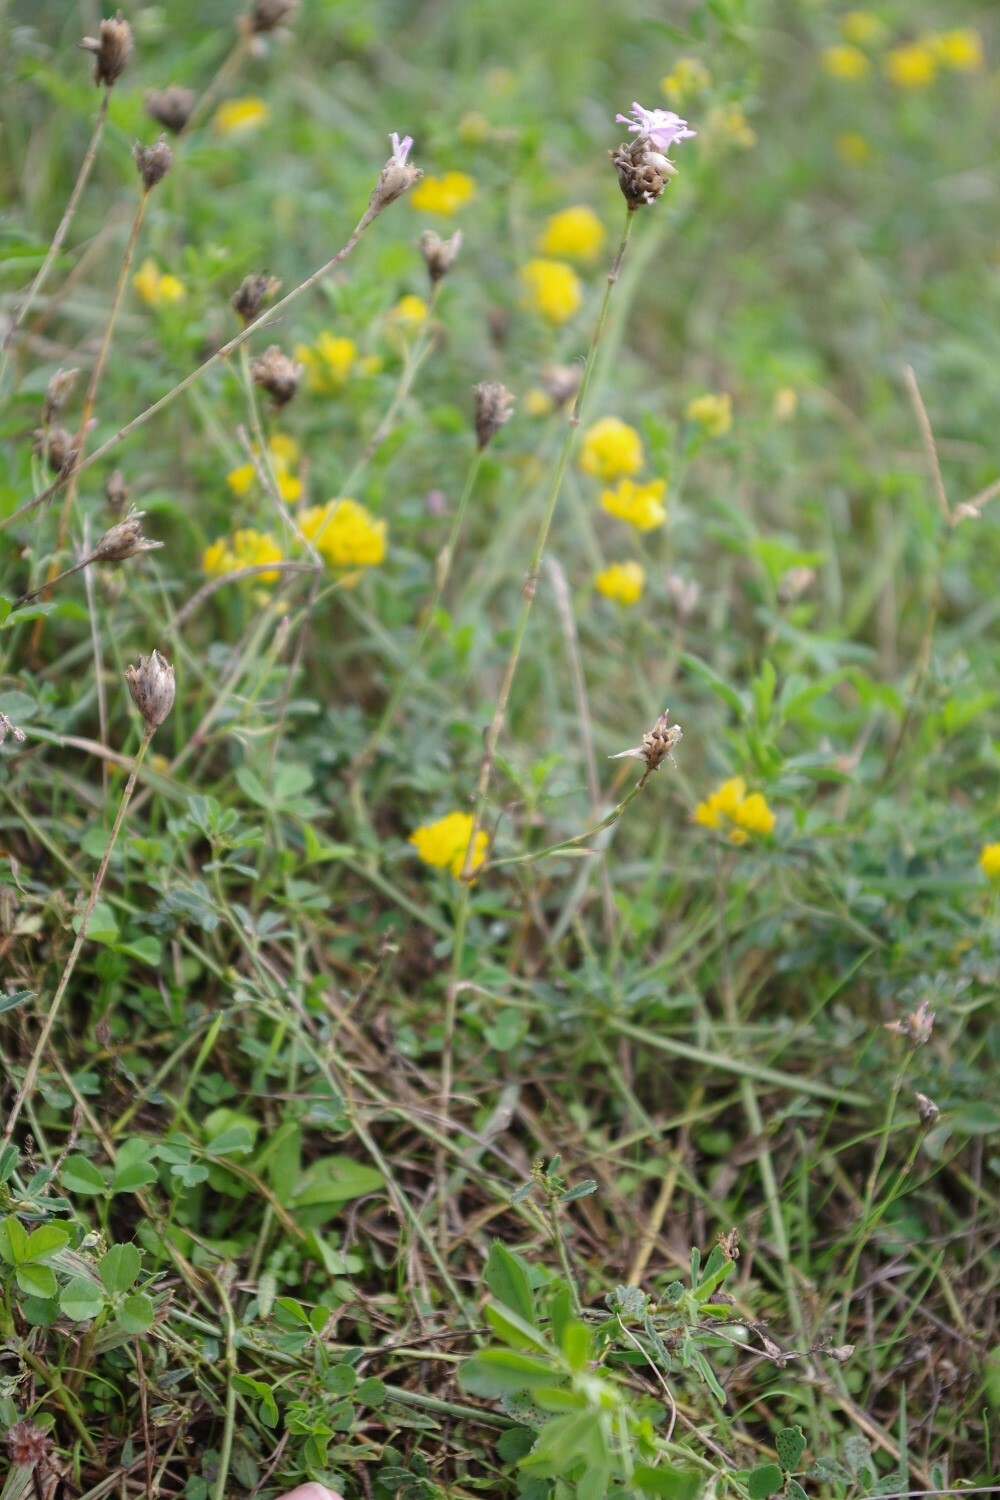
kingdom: Plantae
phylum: Tracheophyta
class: Magnoliopsida
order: Caryophyllales
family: Caryophyllaceae
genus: Petrorhagia
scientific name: Petrorhagia prolifera
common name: Proliferous pink
